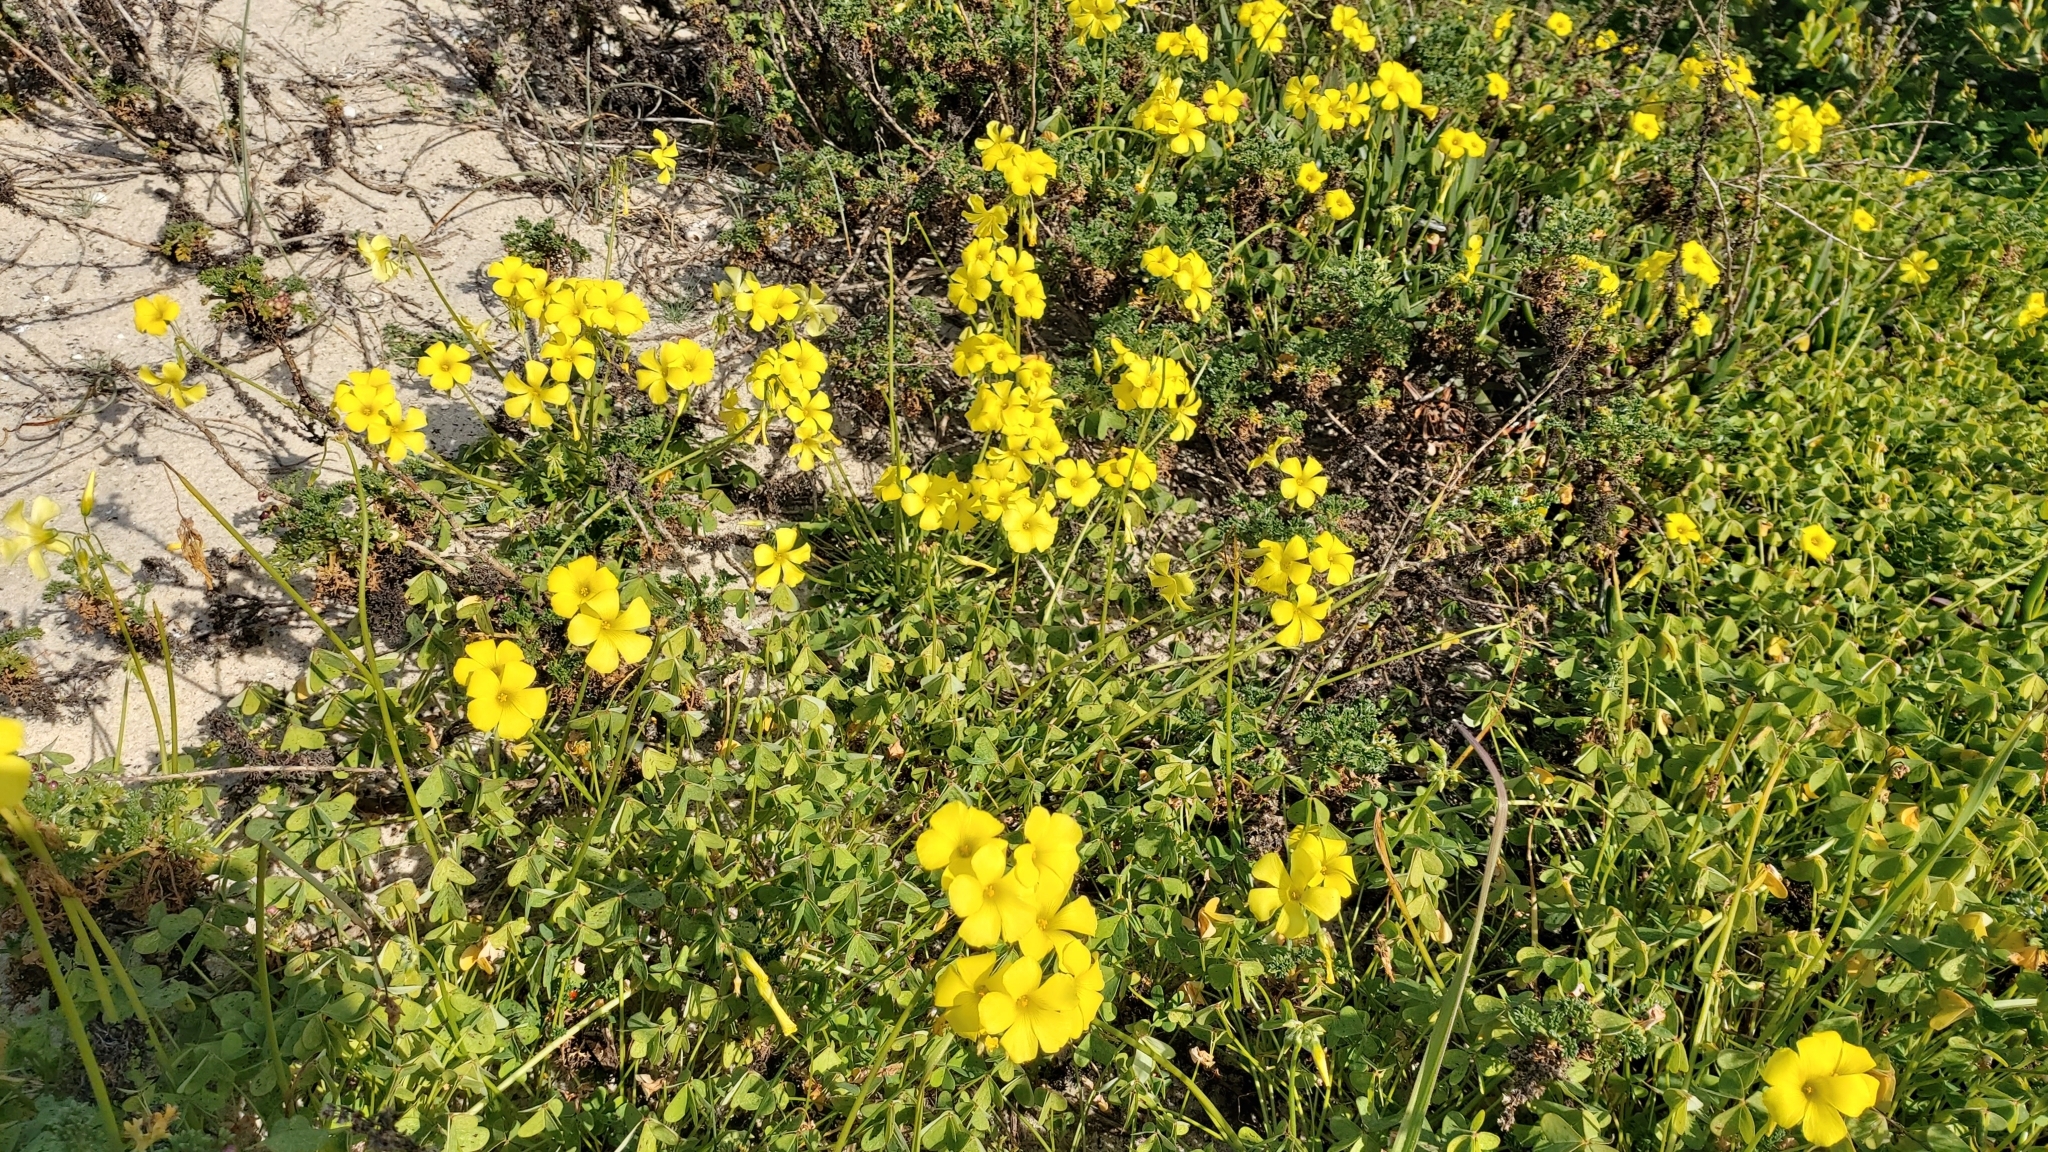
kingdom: Plantae
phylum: Tracheophyta
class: Magnoliopsida
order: Oxalidales
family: Oxalidaceae
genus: Oxalis
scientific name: Oxalis pes-caprae
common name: Bermuda-buttercup
